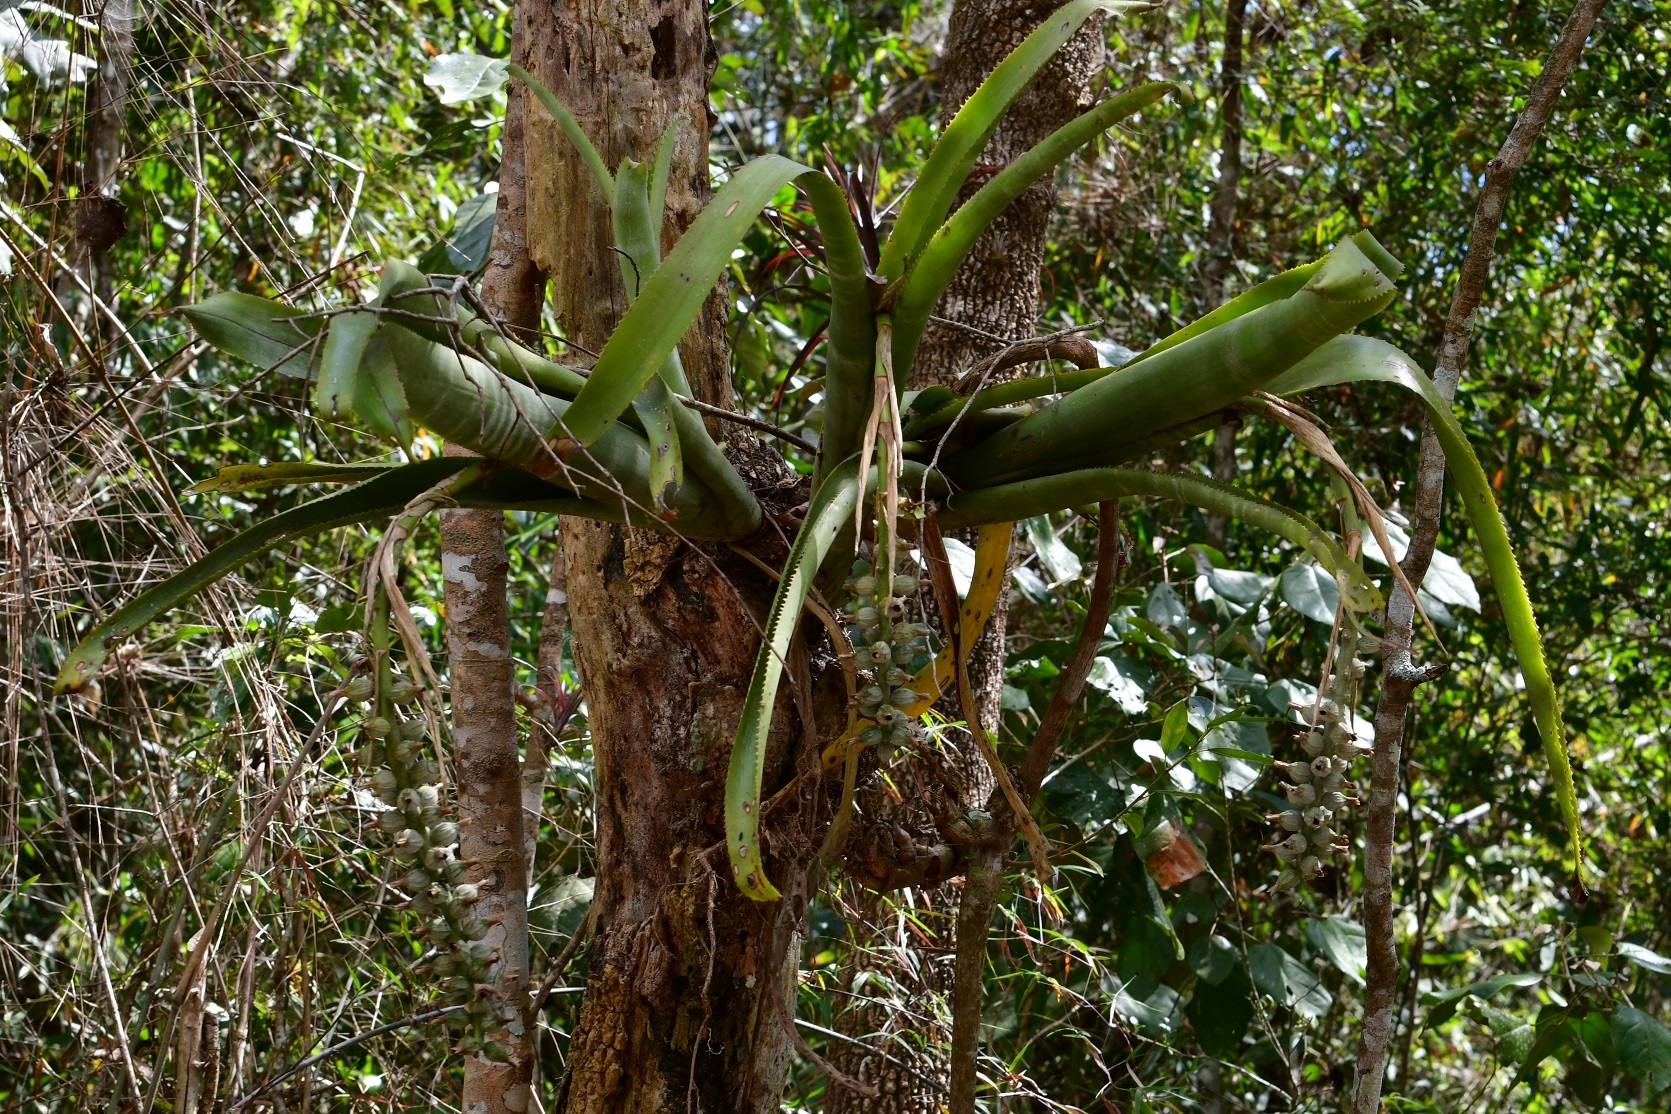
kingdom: Plantae
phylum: Tracheophyta
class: Liliopsida
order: Poales
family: Bromeliaceae
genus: Billbergia
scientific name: Billbergia pallidiflora
